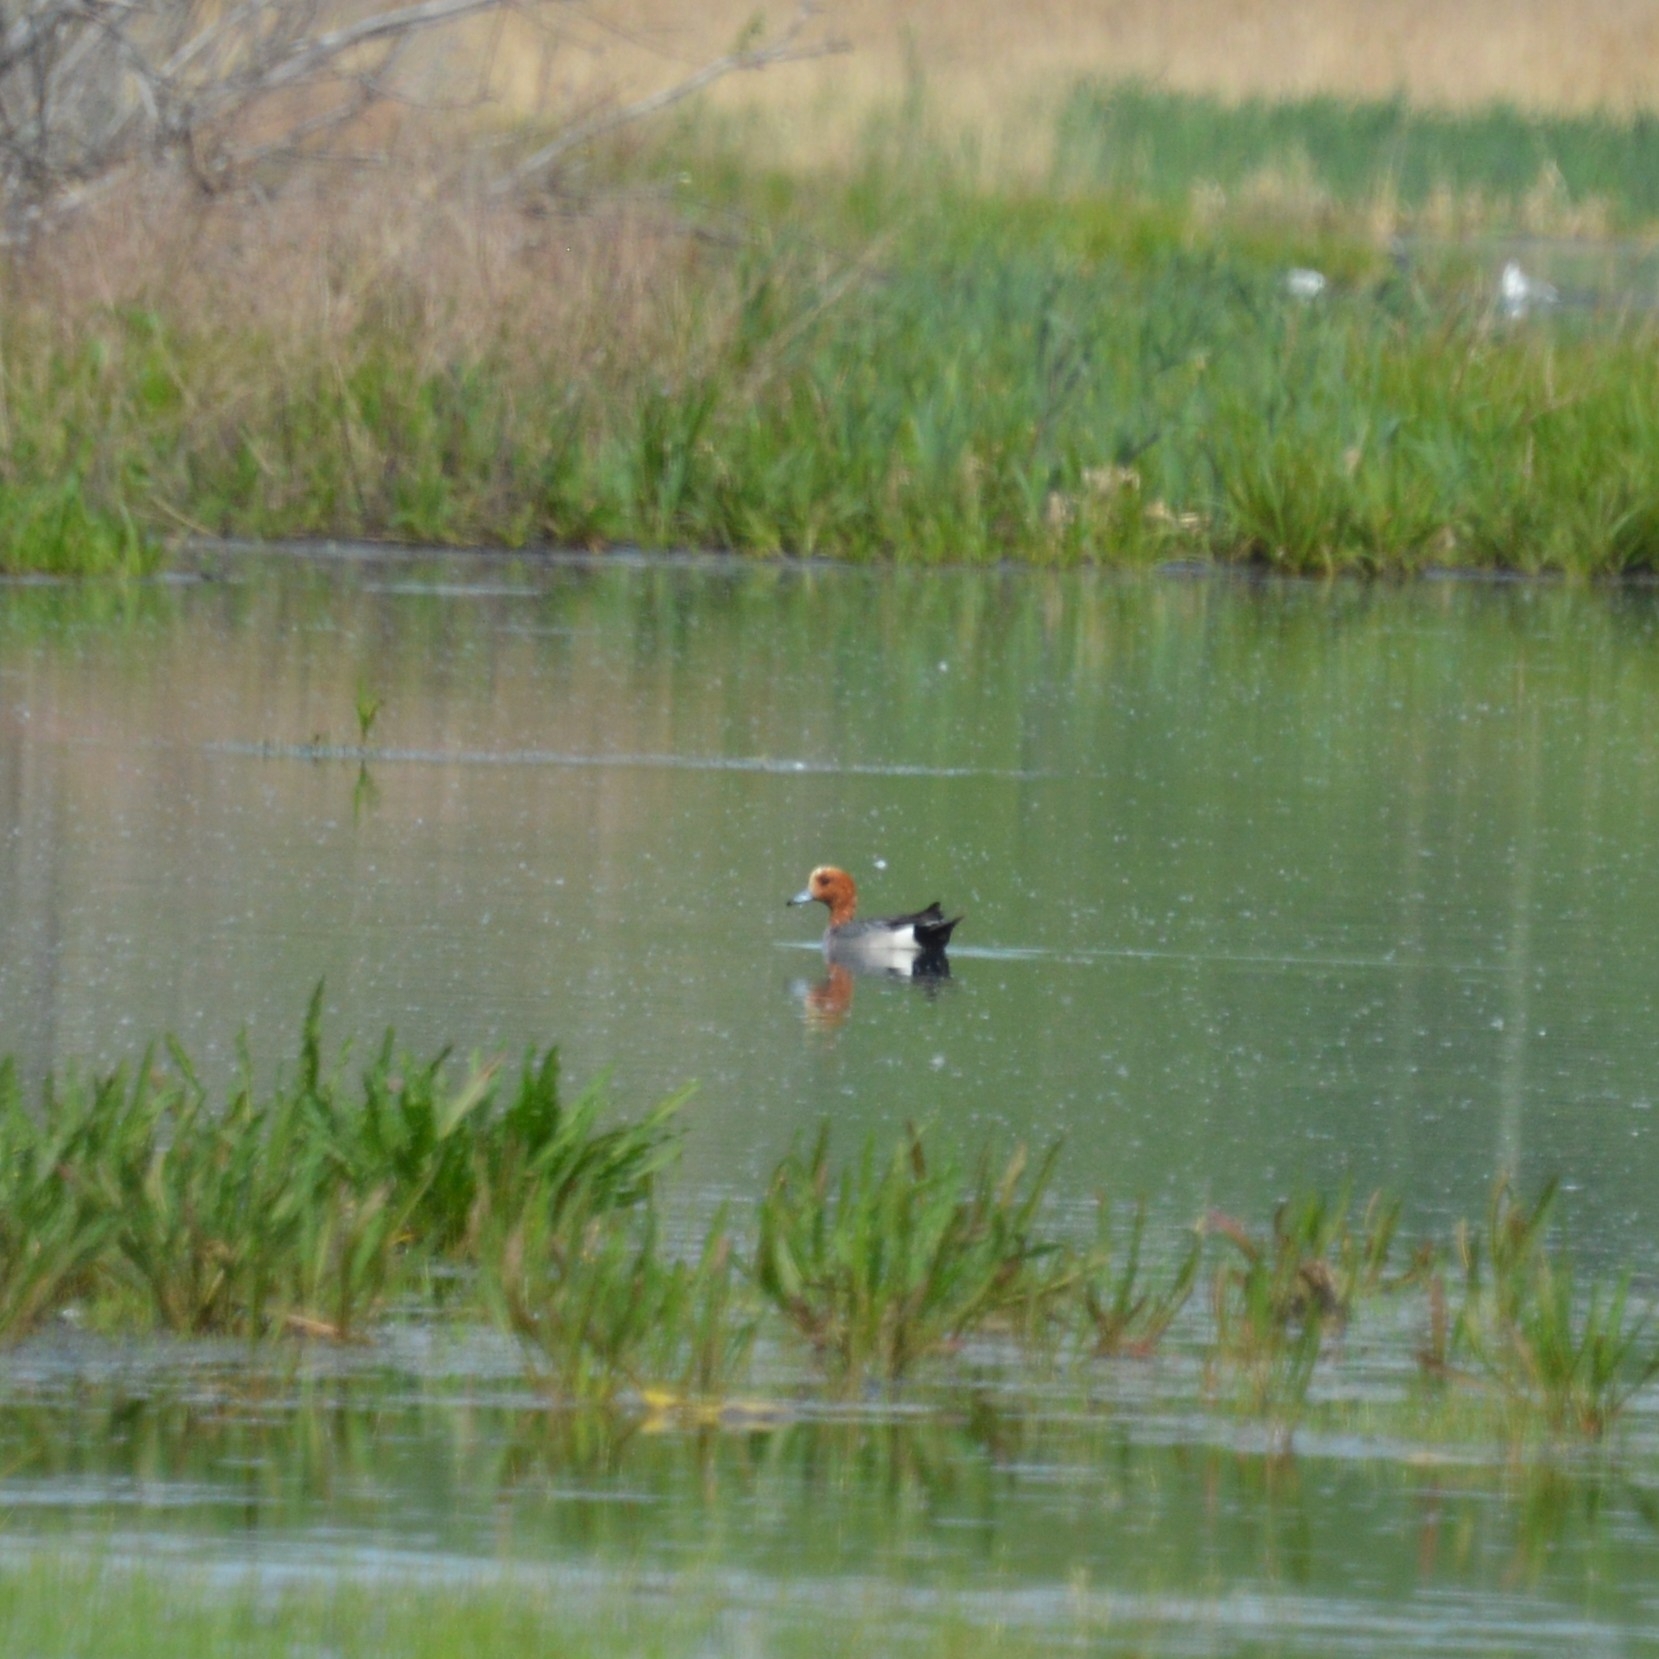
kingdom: Animalia
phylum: Chordata
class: Aves
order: Anseriformes
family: Anatidae
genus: Mareca
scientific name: Mareca penelope
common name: Eurasian wigeon
